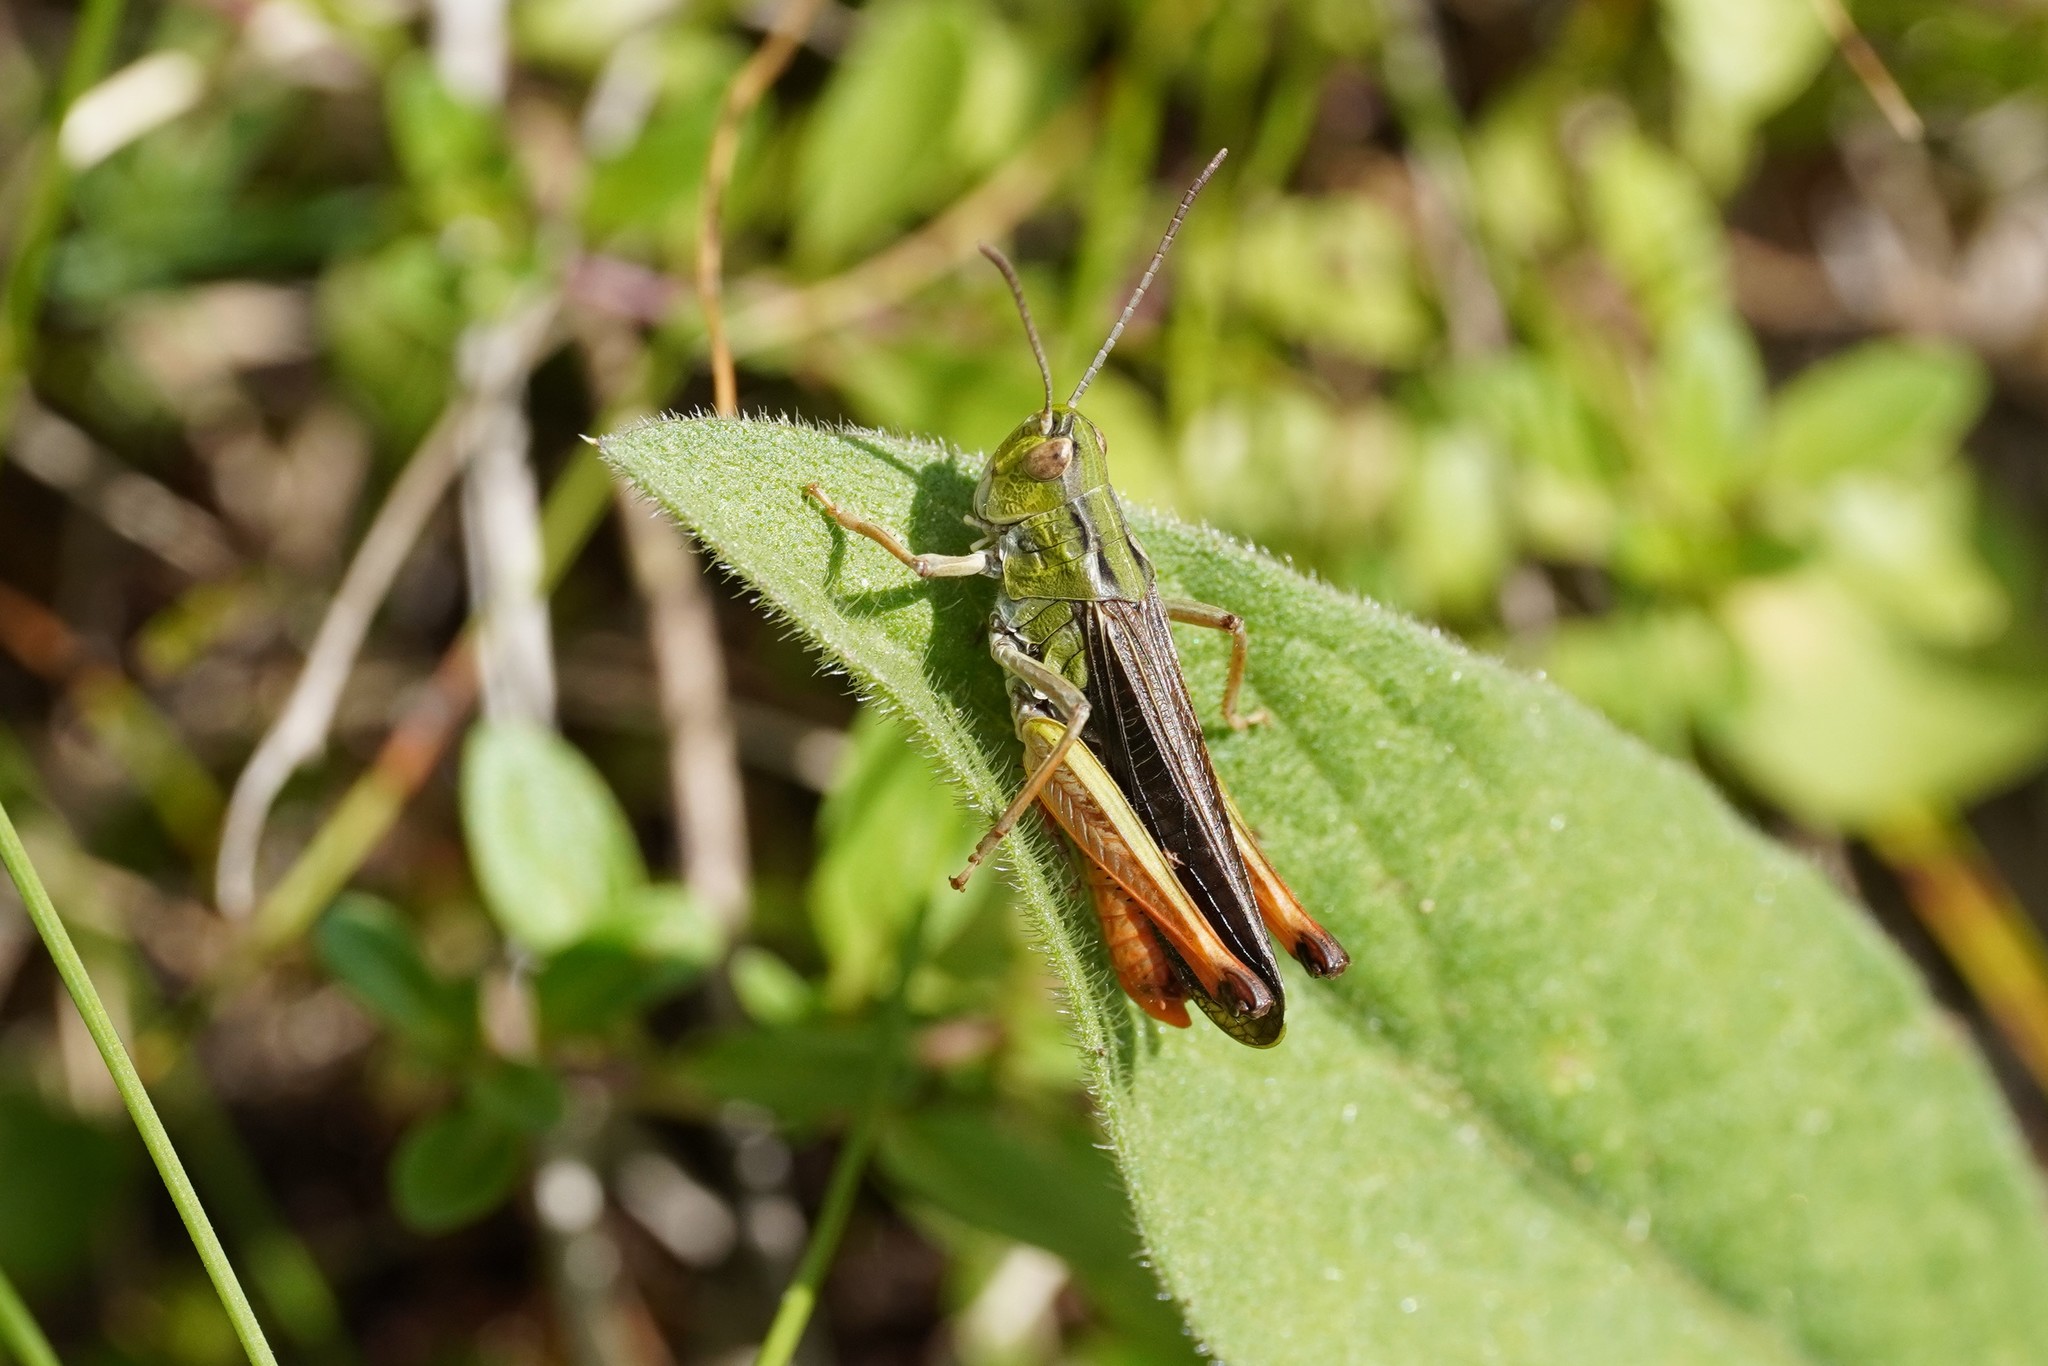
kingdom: Animalia
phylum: Arthropoda
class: Insecta
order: Orthoptera
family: Acrididae
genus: Stenobothrus
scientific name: Stenobothrus lineatus
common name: Stripe-winged grasshopper
